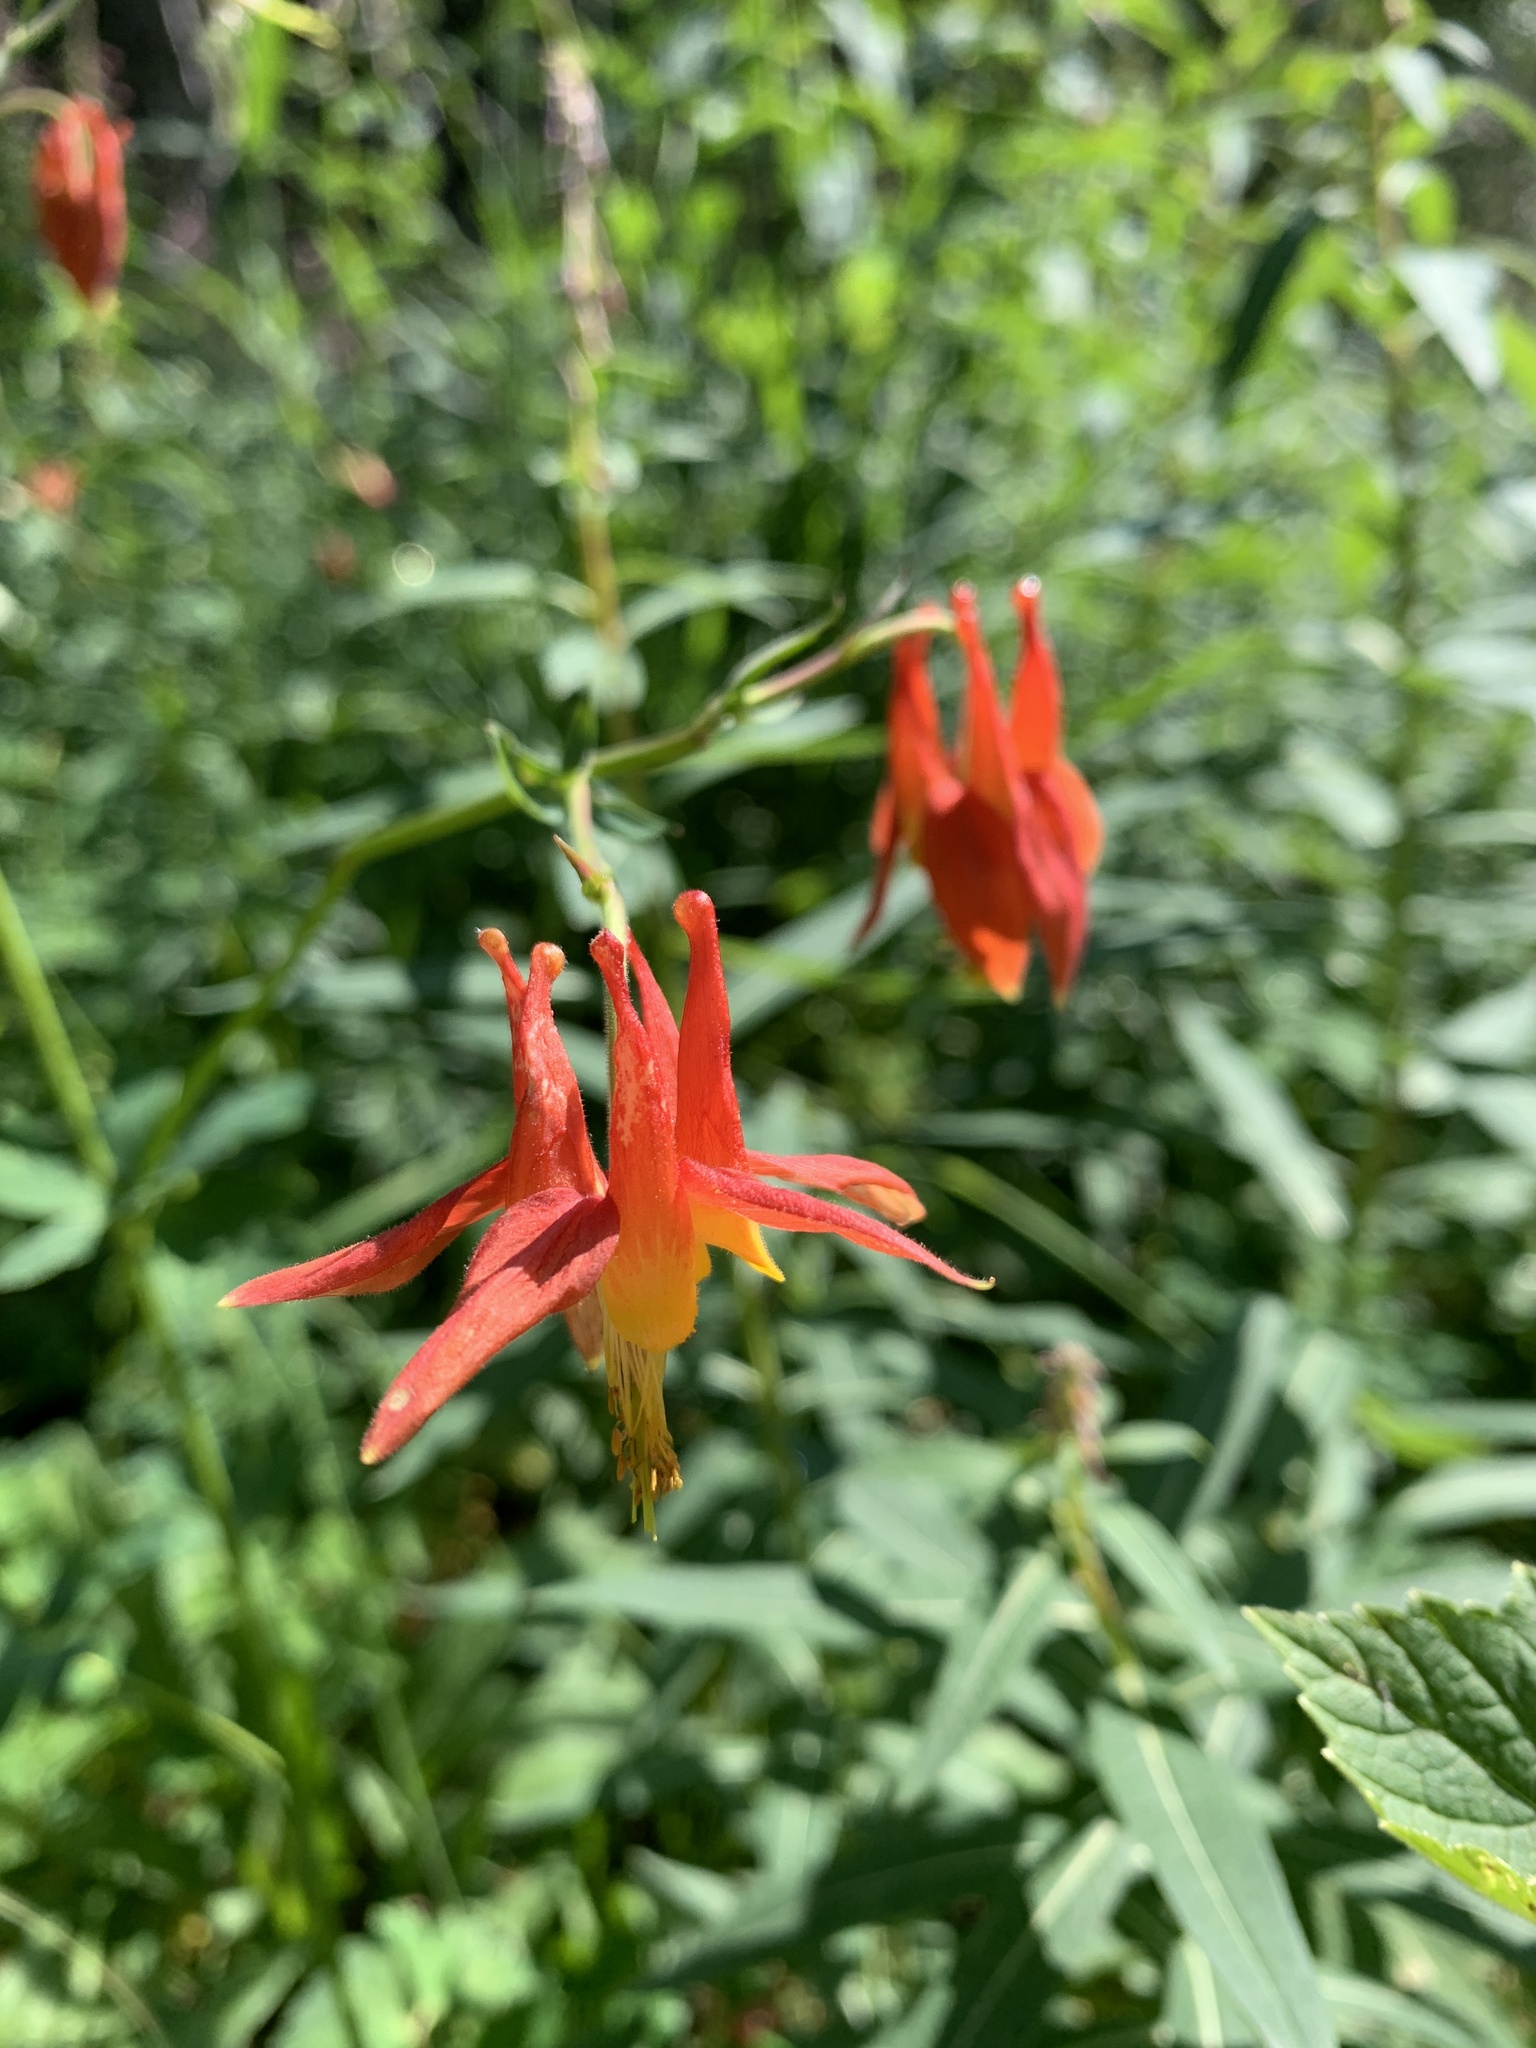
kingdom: Plantae
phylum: Tracheophyta
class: Magnoliopsida
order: Ranunculales
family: Ranunculaceae
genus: Aquilegia
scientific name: Aquilegia formosa
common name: Sitka columbine
